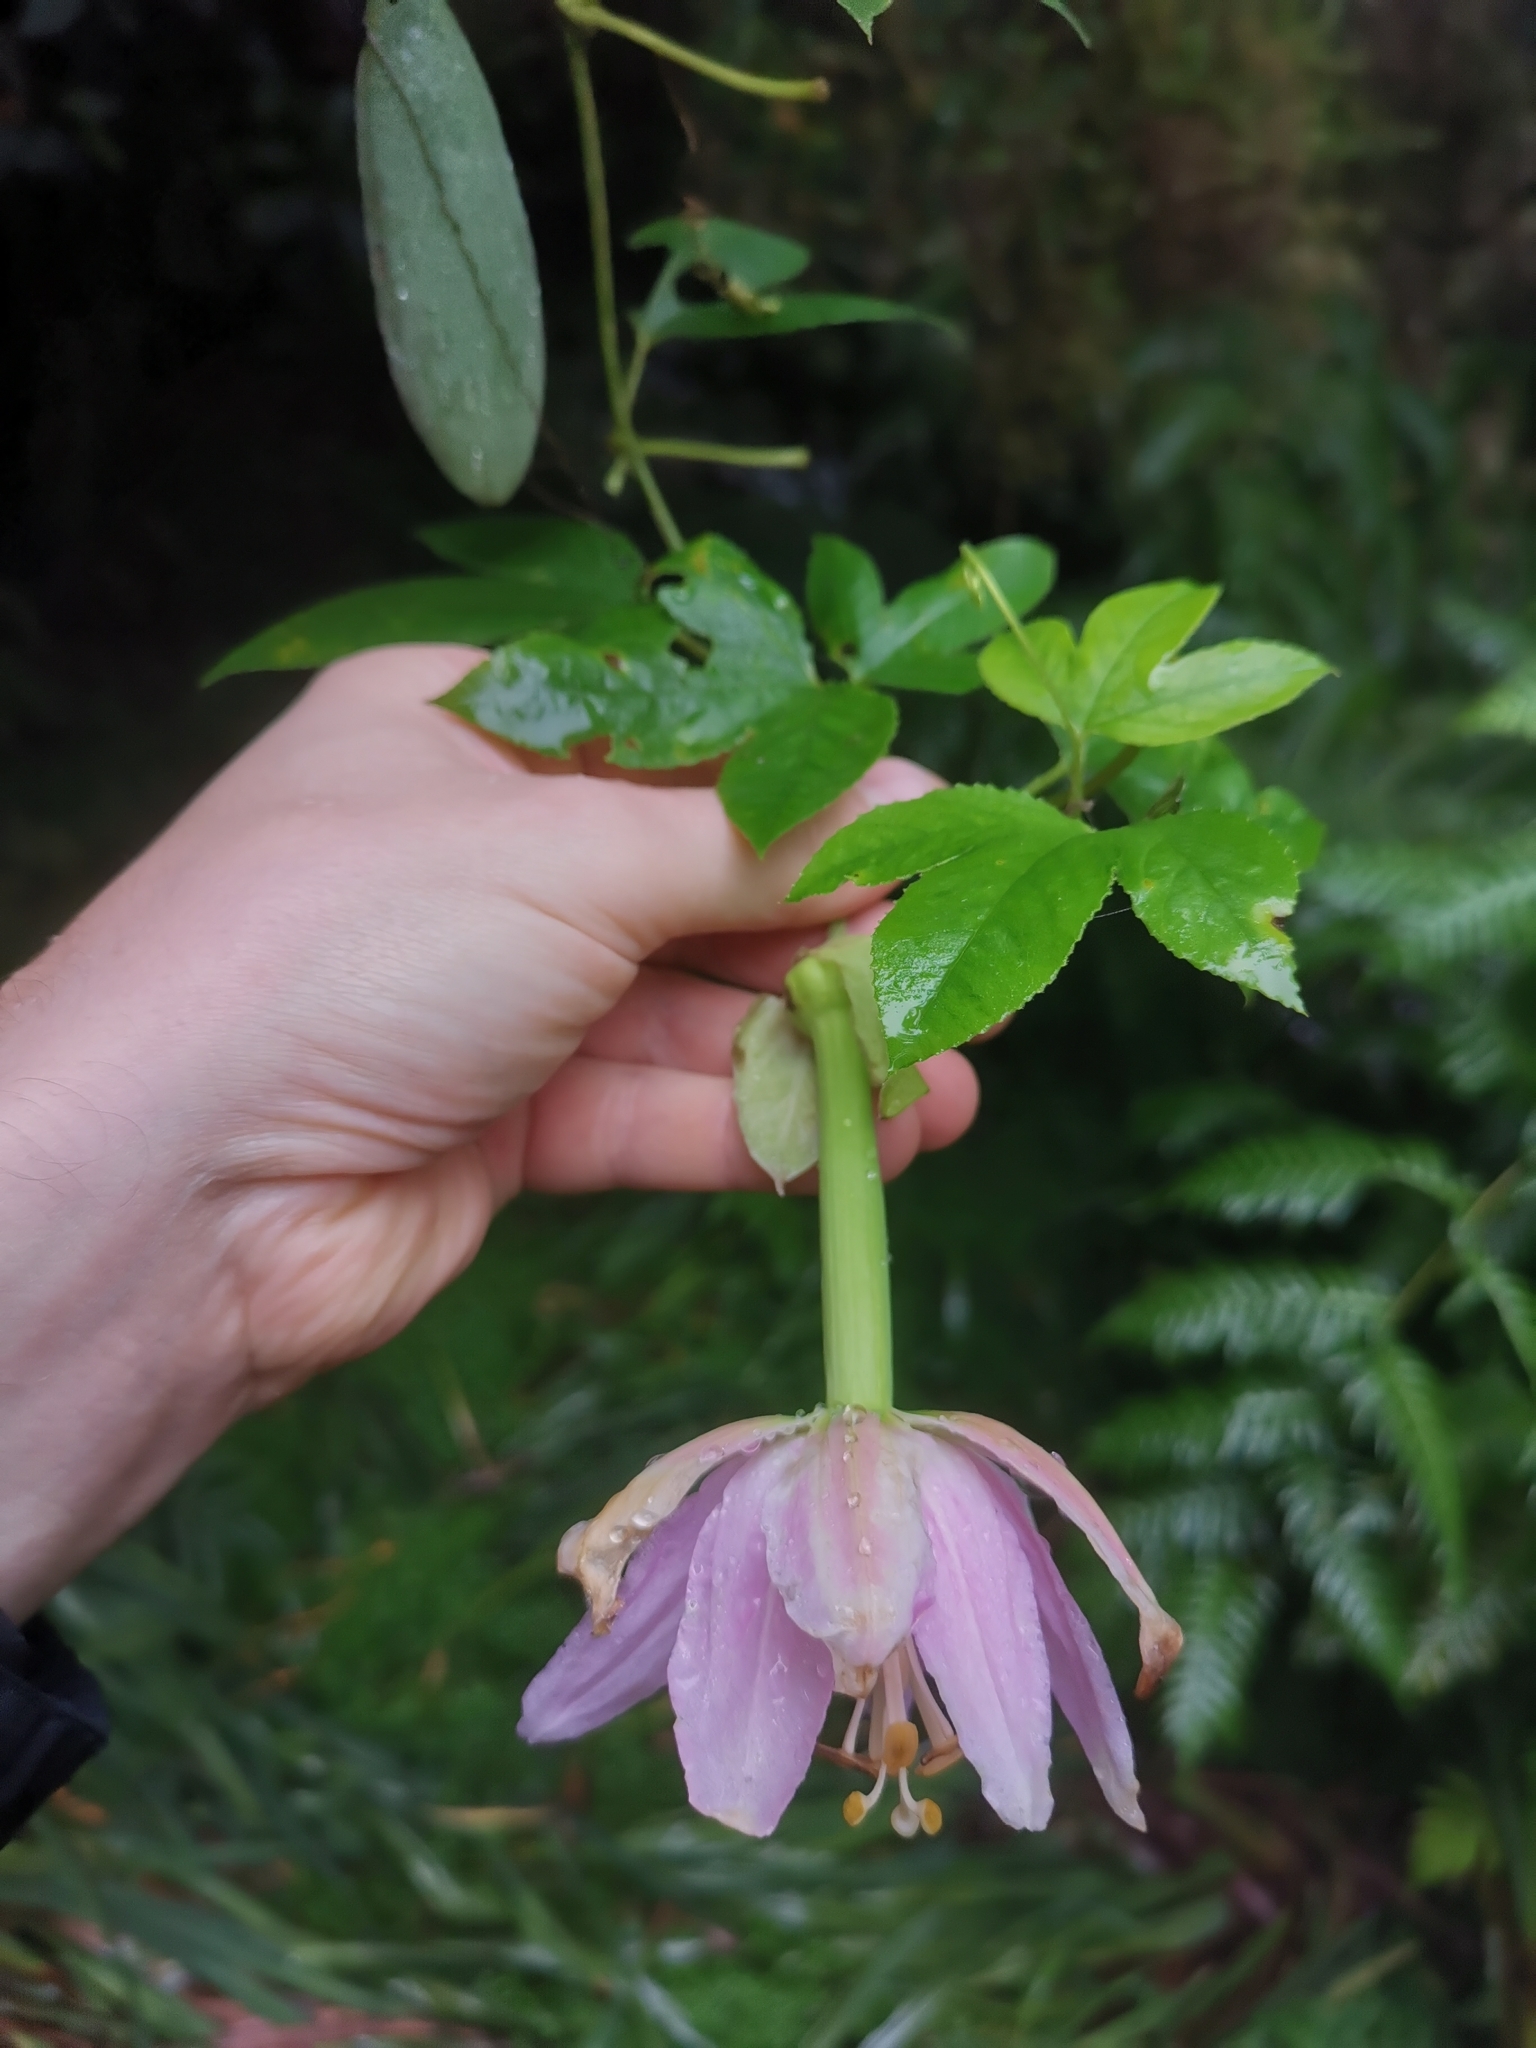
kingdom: Plantae
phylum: Tracheophyta
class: Magnoliopsida
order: Malpighiales
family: Passifloraceae
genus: Passiflora
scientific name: Passiflora tarminiana
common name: Banana poka
